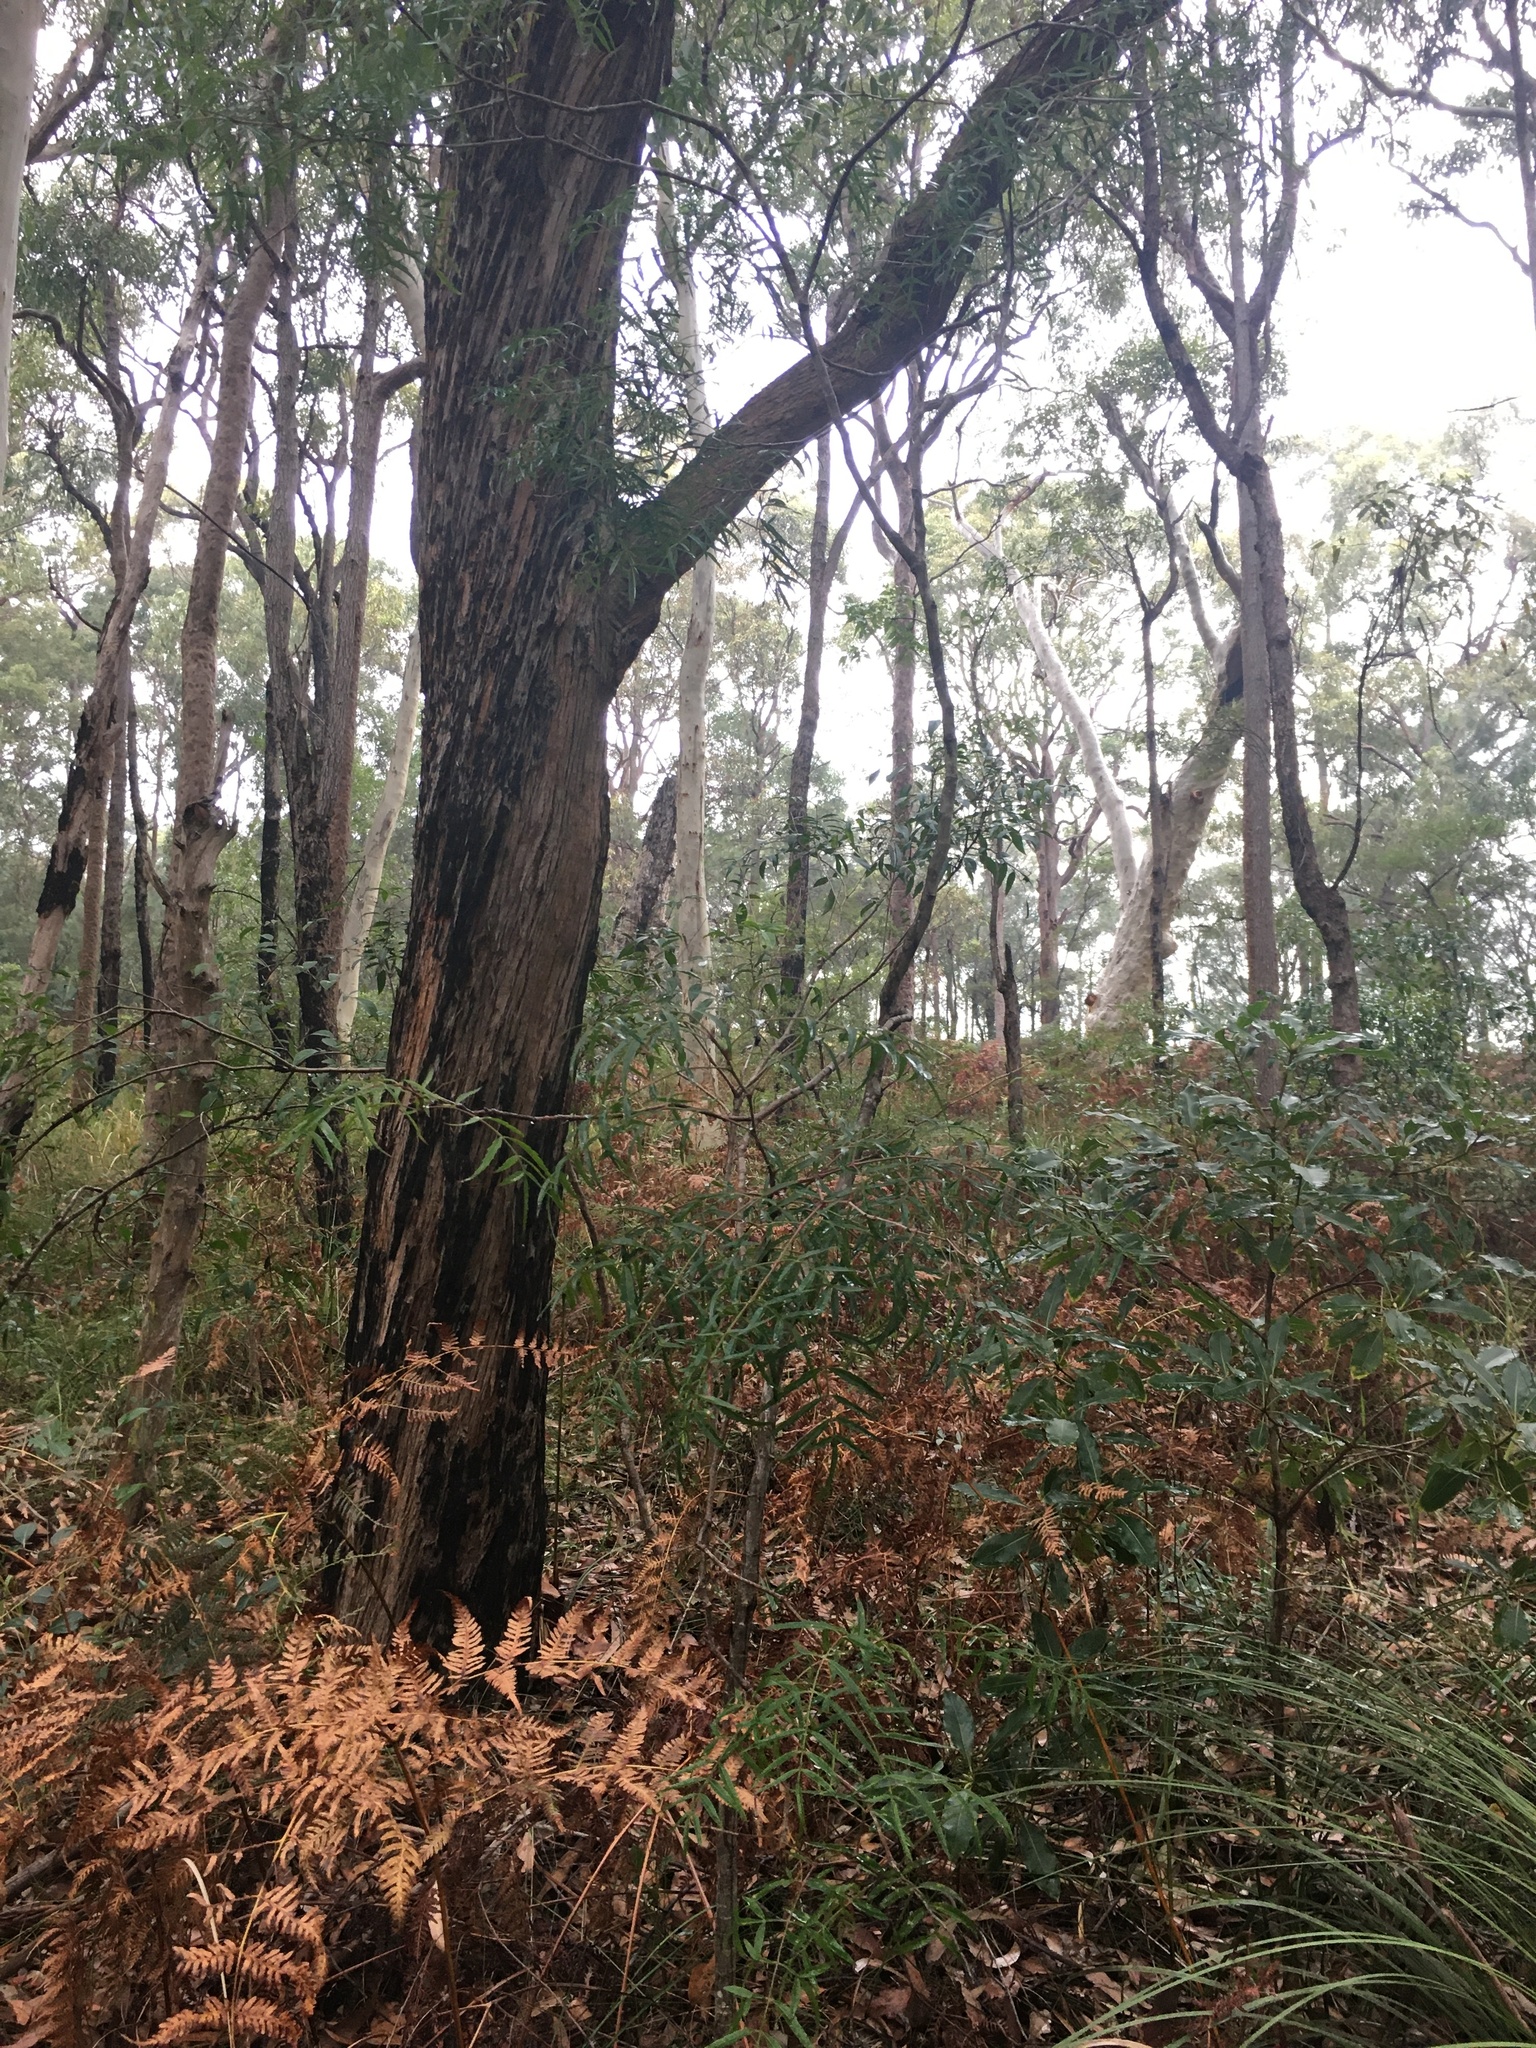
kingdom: Plantae
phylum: Tracheophyta
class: Magnoliopsida
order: Apiales
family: Araliaceae
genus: Polyscias
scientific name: Polyscias sambucifolia
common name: Elderberry-ash
